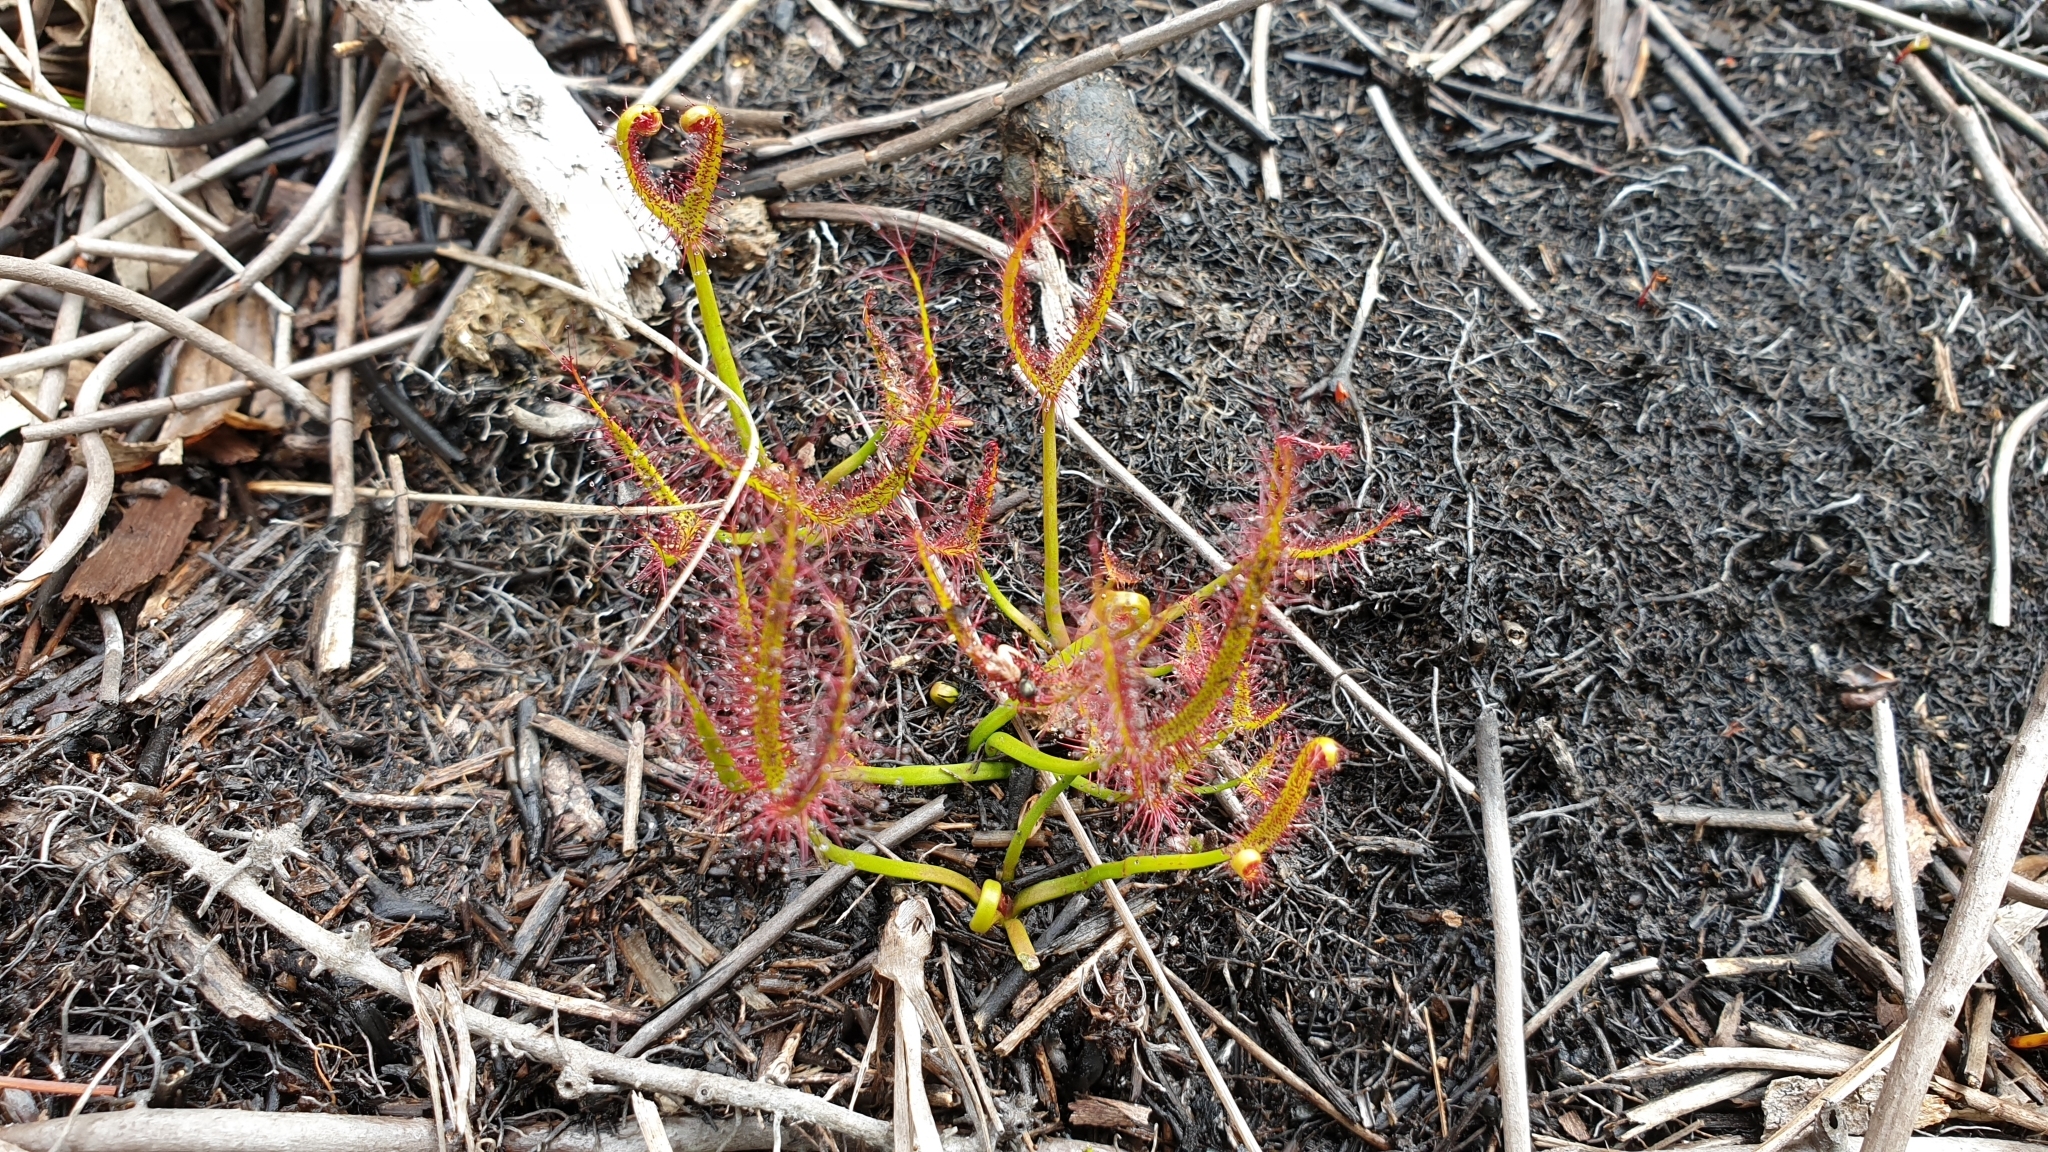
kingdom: Plantae
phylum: Tracheophyta
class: Magnoliopsida
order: Caryophyllales
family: Droseraceae
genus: Drosera
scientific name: Drosera binata
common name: Forked sundew
